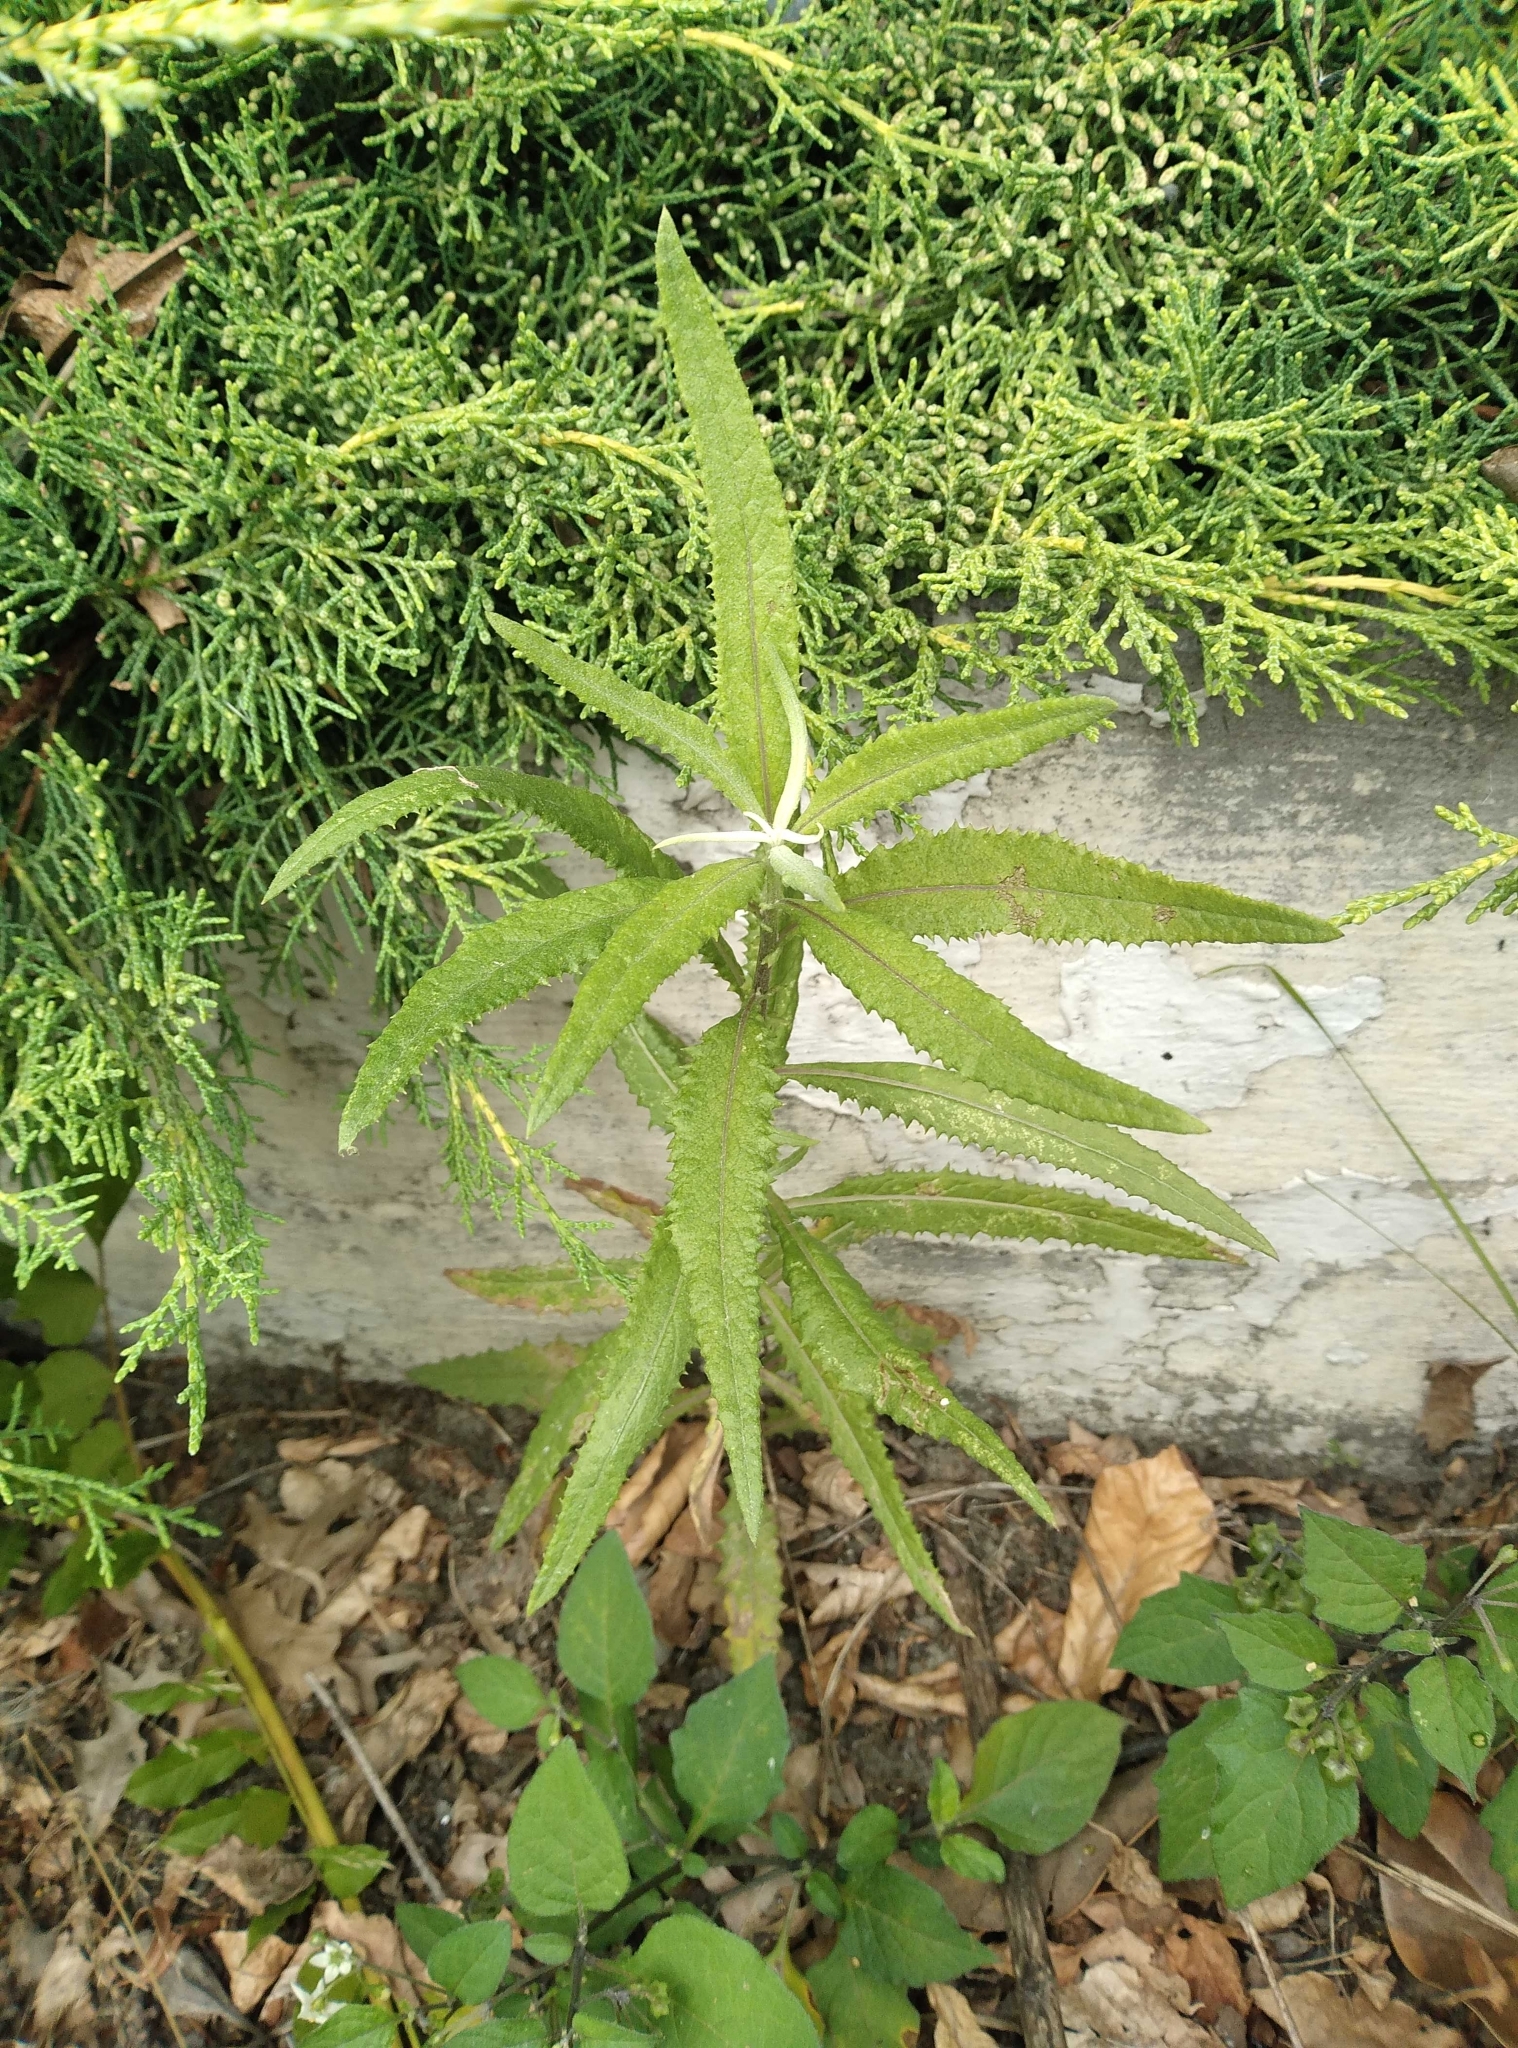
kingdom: Plantae
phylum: Tracheophyta
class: Magnoliopsida
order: Asterales
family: Asteraceae
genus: Senecio
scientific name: Senecio minimus
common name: Toothed fireweed
